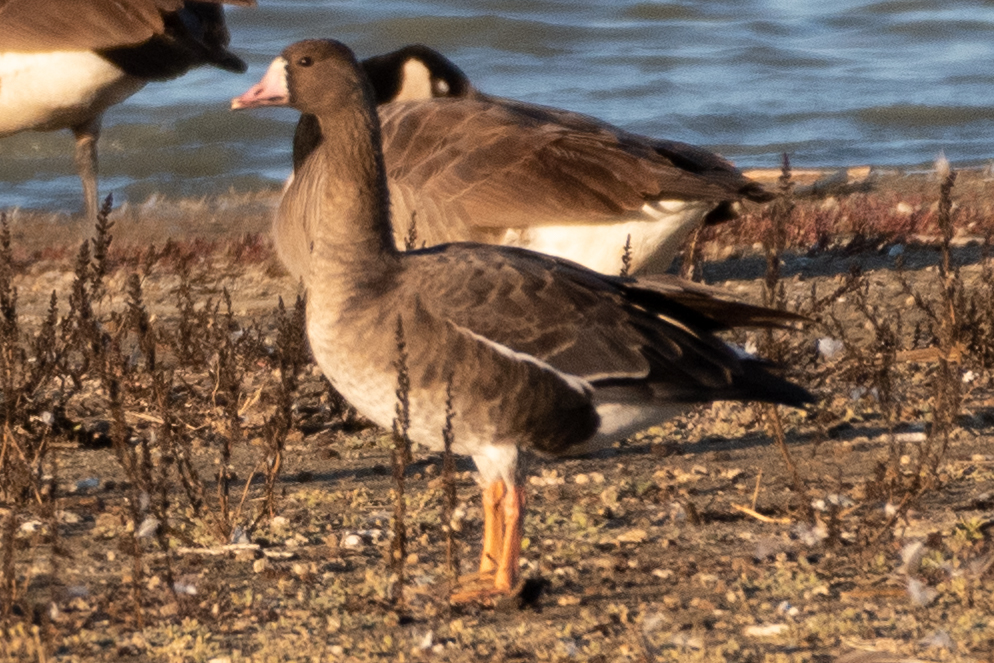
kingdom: Animalia
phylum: Chordata
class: Aves
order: Anseriformes
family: Anatidae
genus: Anser
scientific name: Anser albifrons
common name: Greater white-fronted goose
